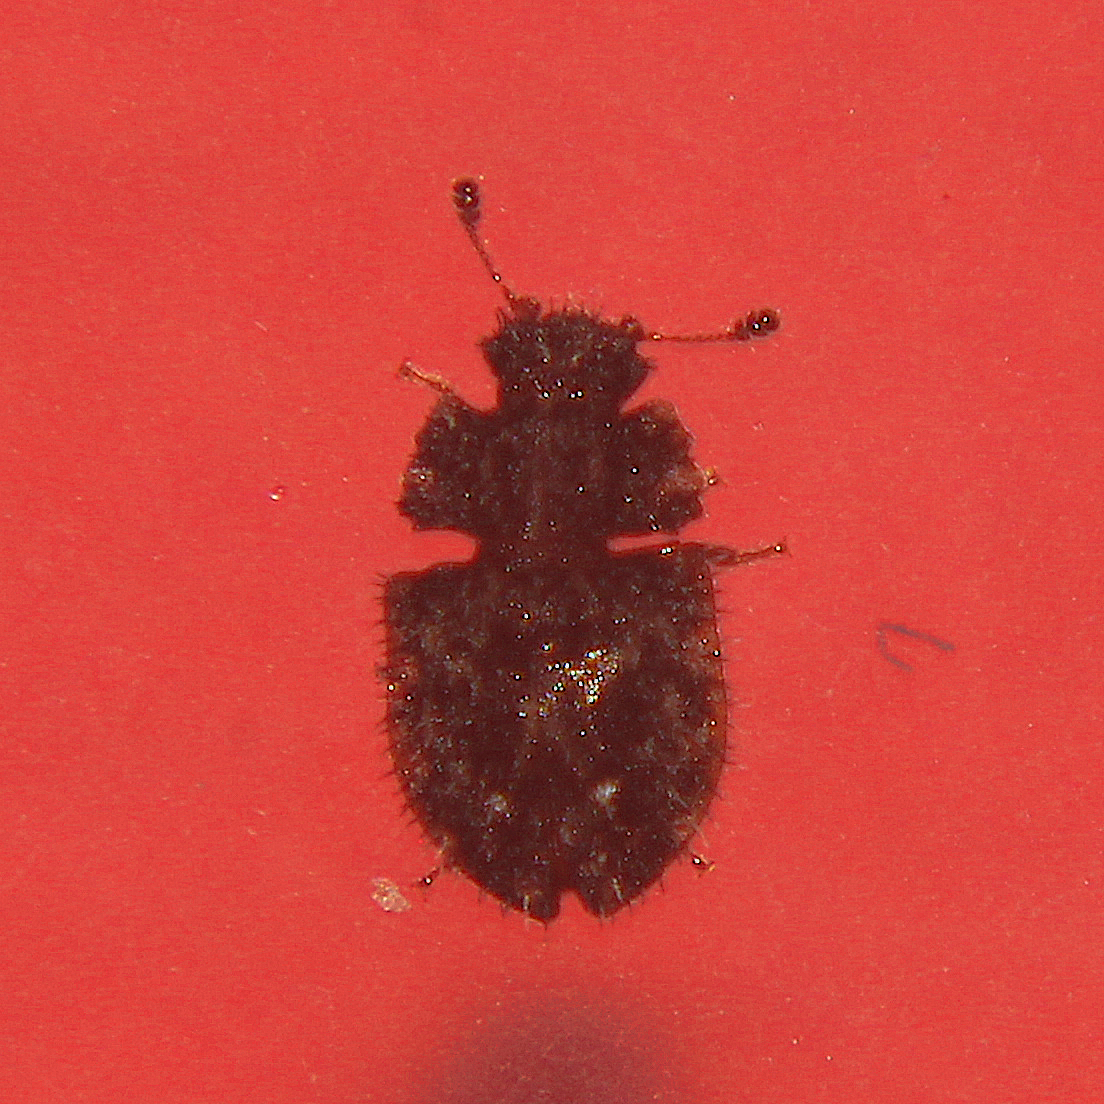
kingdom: Animalia
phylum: Arthropoda
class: Insecta
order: Coleoptera
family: Nitidulidae
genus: Hisparonia
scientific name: Hisparonia
